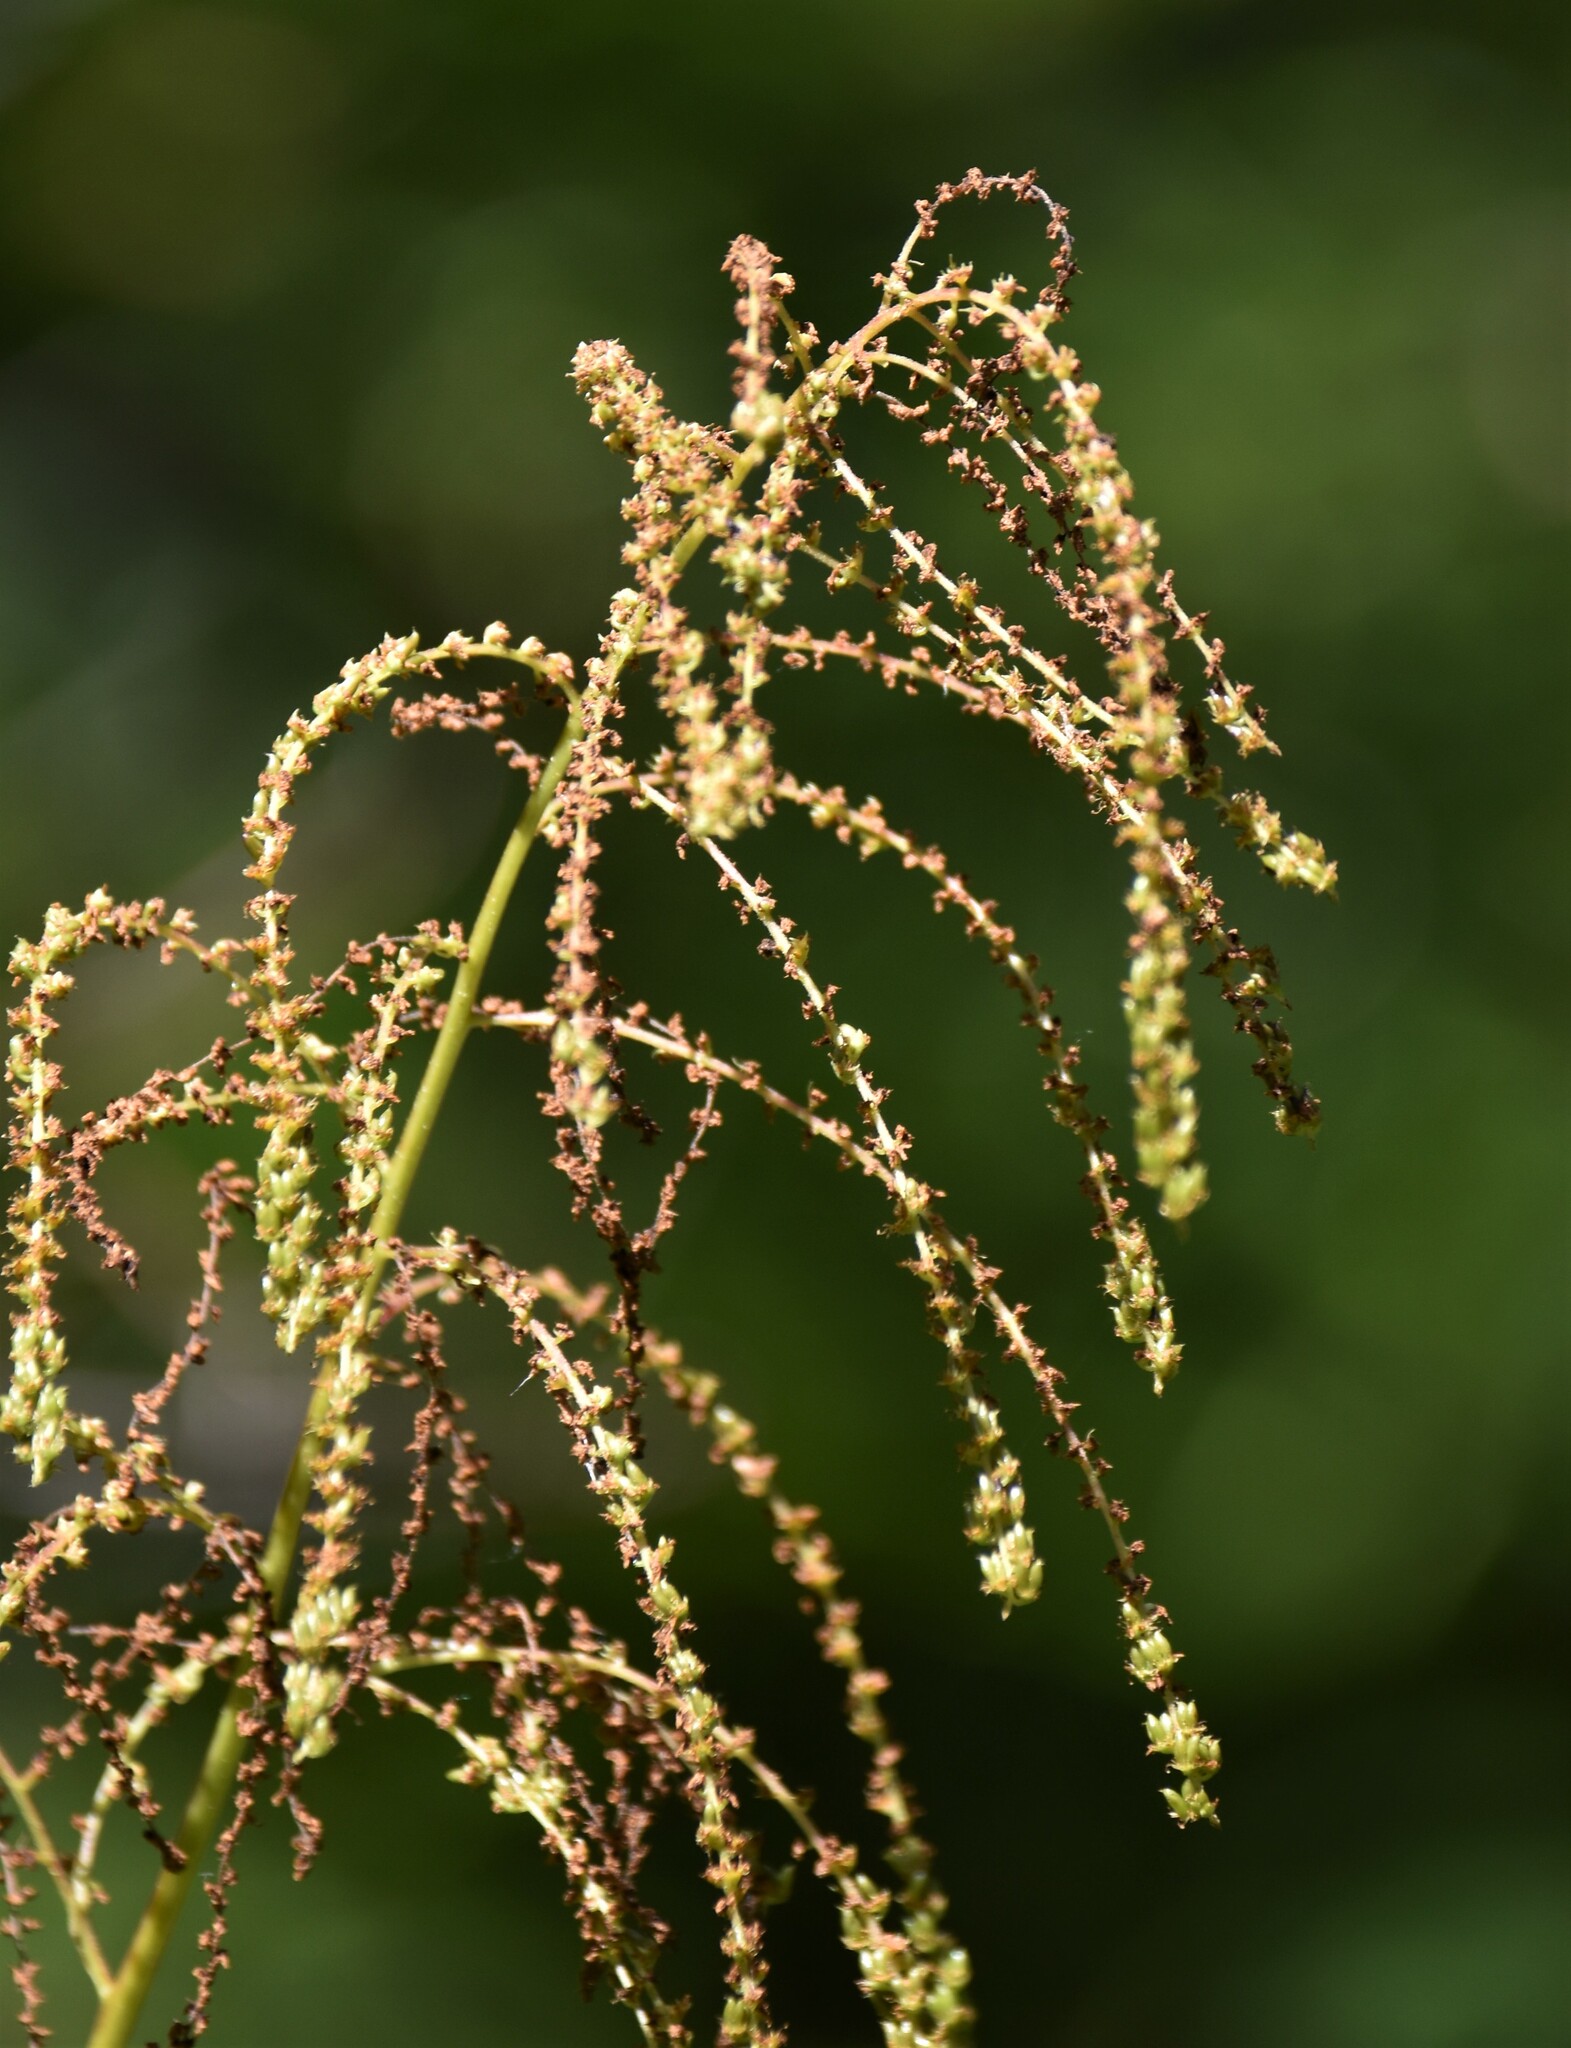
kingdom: Plantae
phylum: Tracheophyta
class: Magnoliopsida
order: Rosales
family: Rosaceae
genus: Aruncus
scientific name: Aruncus dioicus
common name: Buck's-beard
